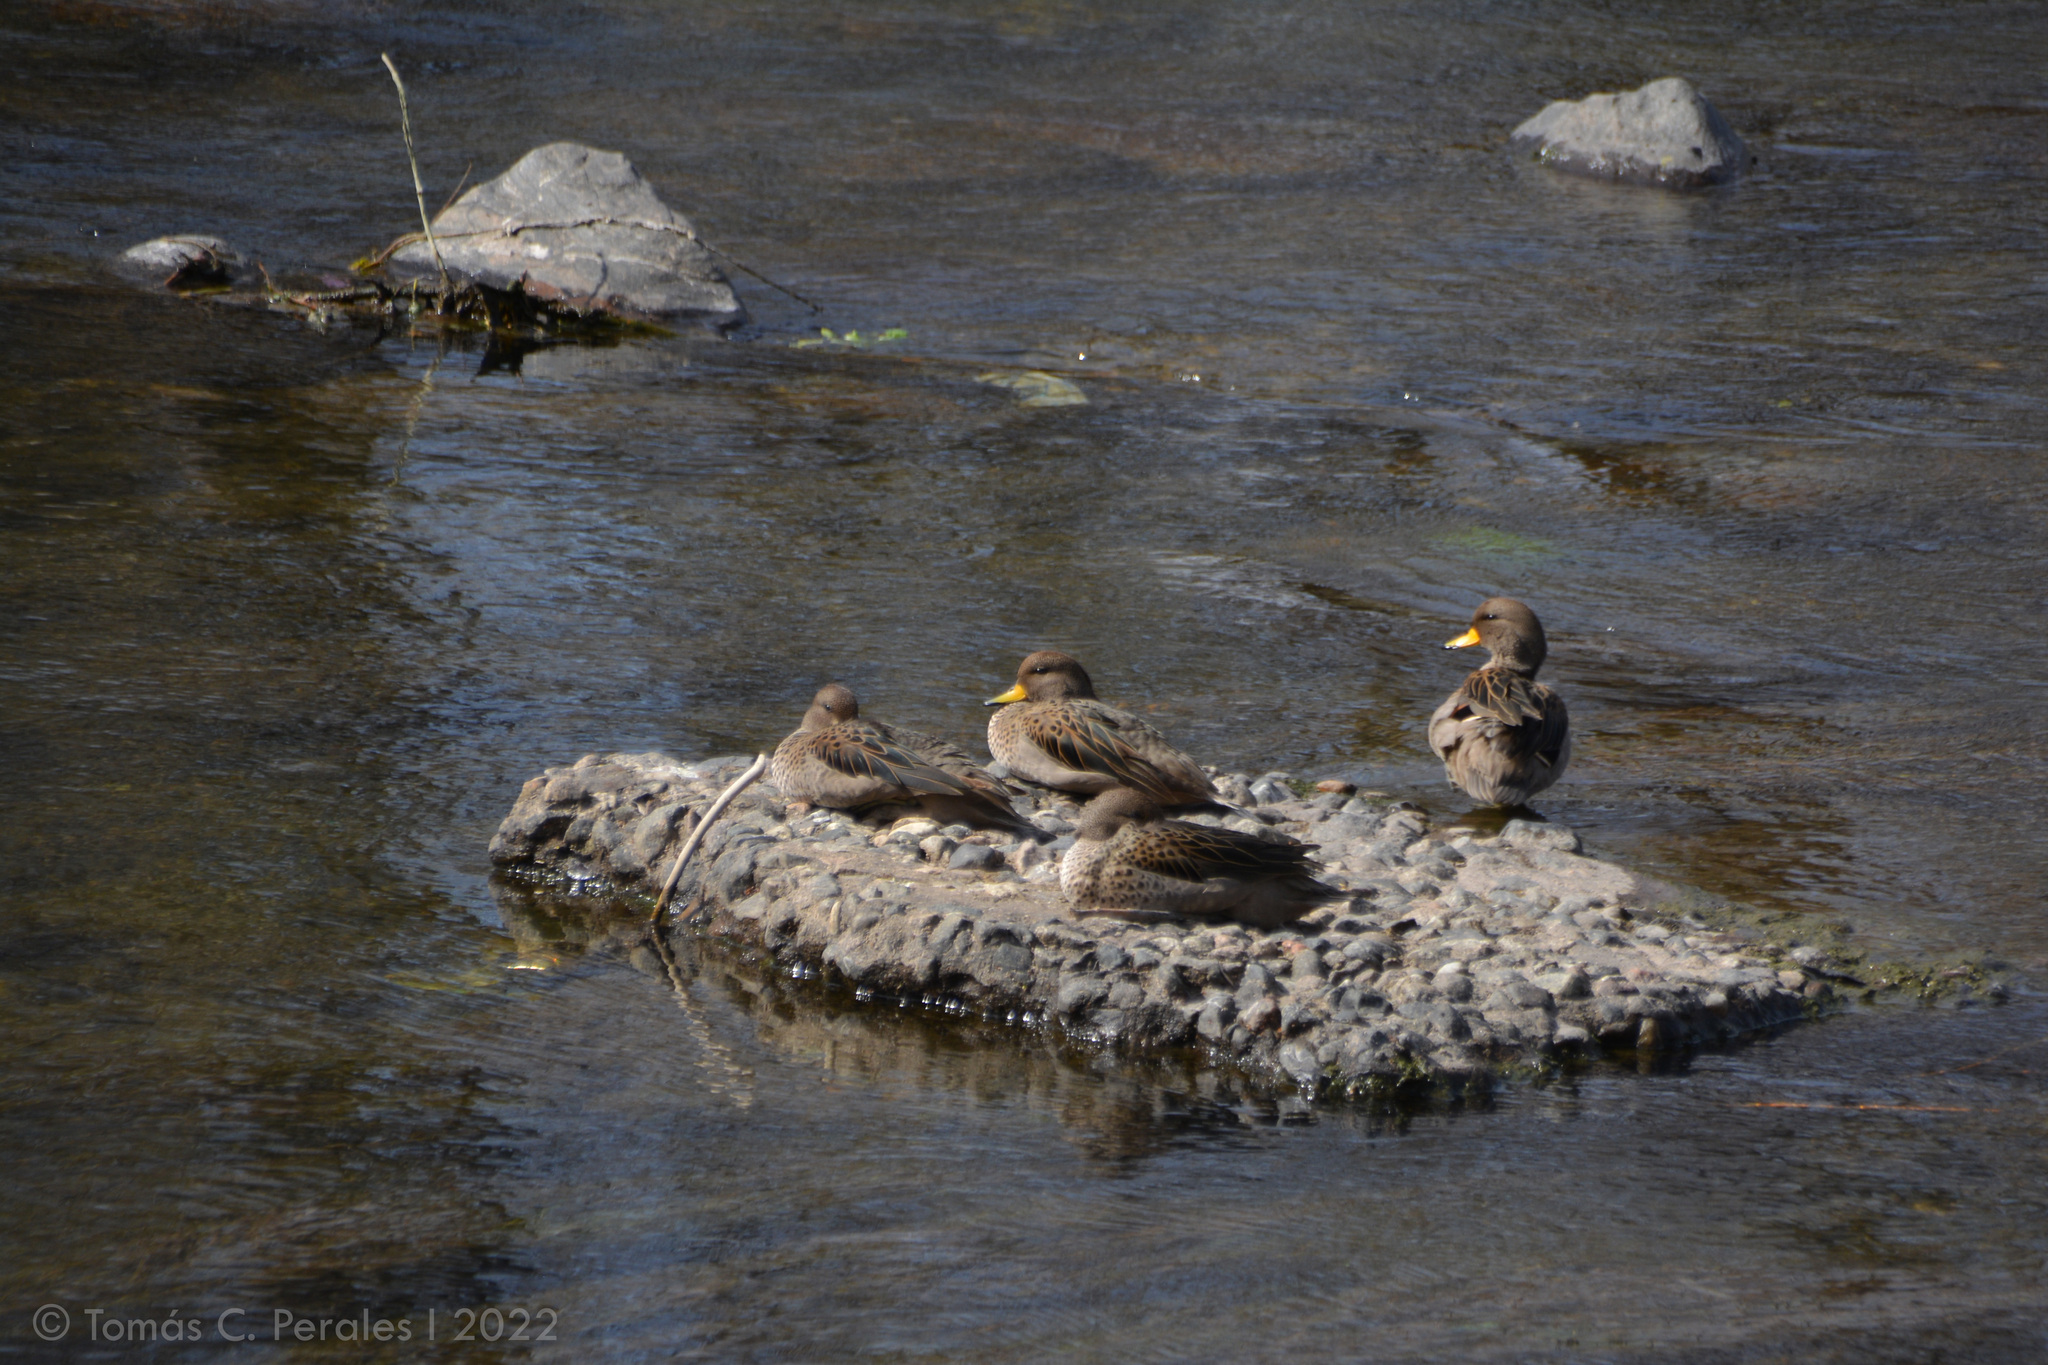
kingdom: Animalia
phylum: Chordata
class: Aves
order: Anseriformes
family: Anatidae
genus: Anas
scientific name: Anas flavirostris
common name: Yellow-billed teal
